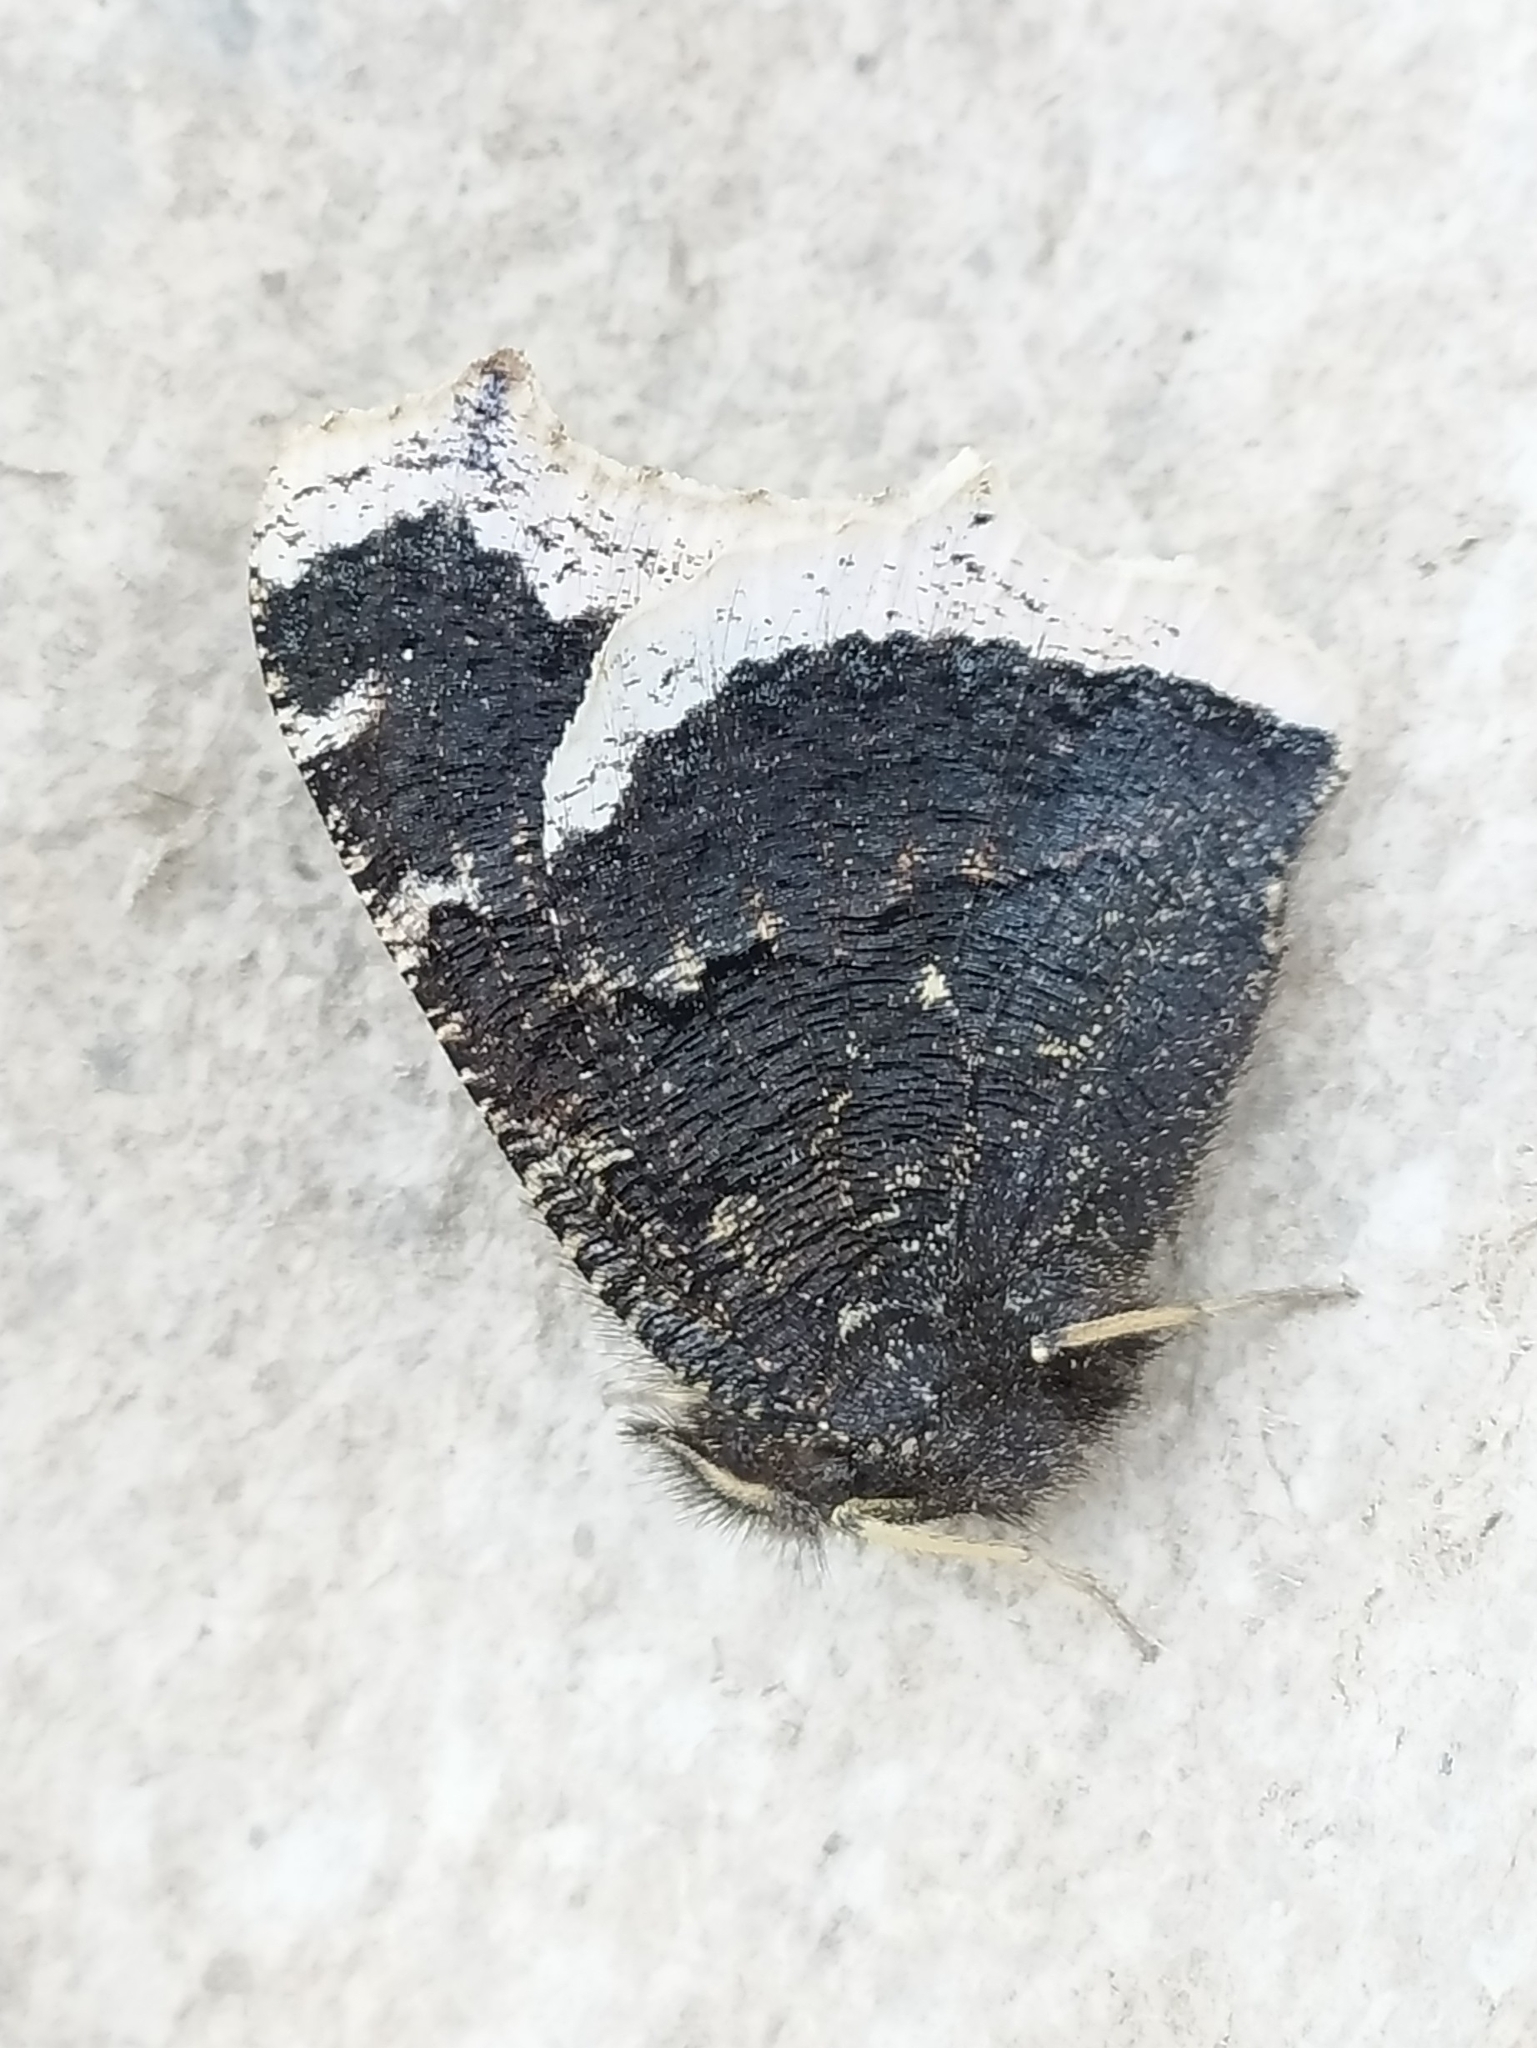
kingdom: Animalia
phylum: Arthropoda
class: Insecta
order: Lepidoptera
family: Nymphalidae
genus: Nymphalis
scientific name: Nymphalis antiopa
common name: Camberwell beauty
